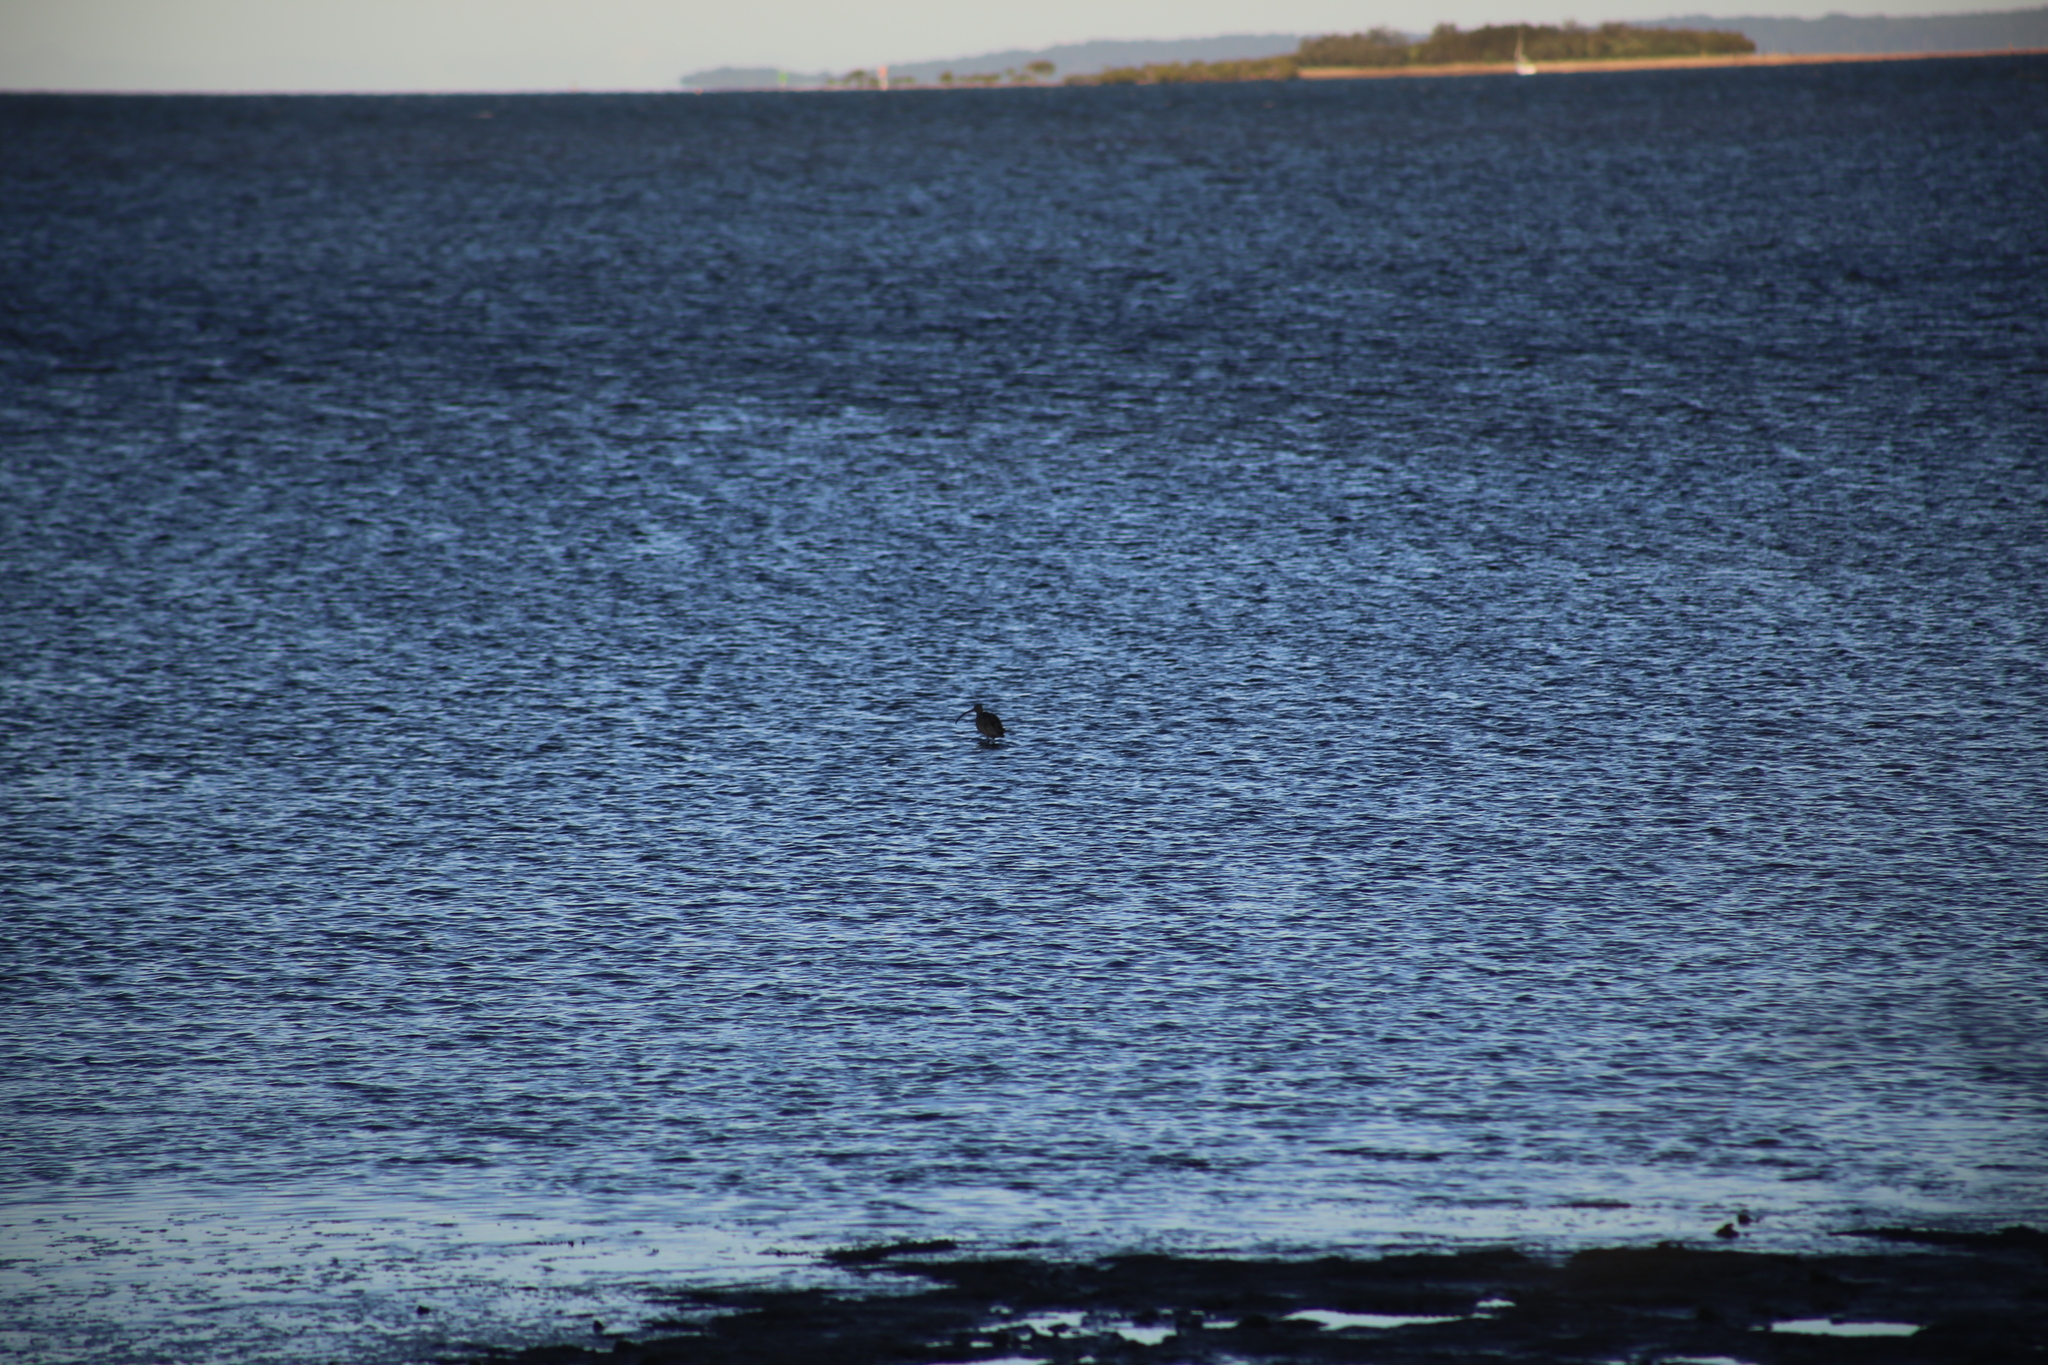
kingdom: Animalia
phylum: Chordata
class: Aves
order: Charadriiformes
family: Scolopacidae
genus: Numenius
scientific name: Numenius madagascariensis
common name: Far eastern curlew
